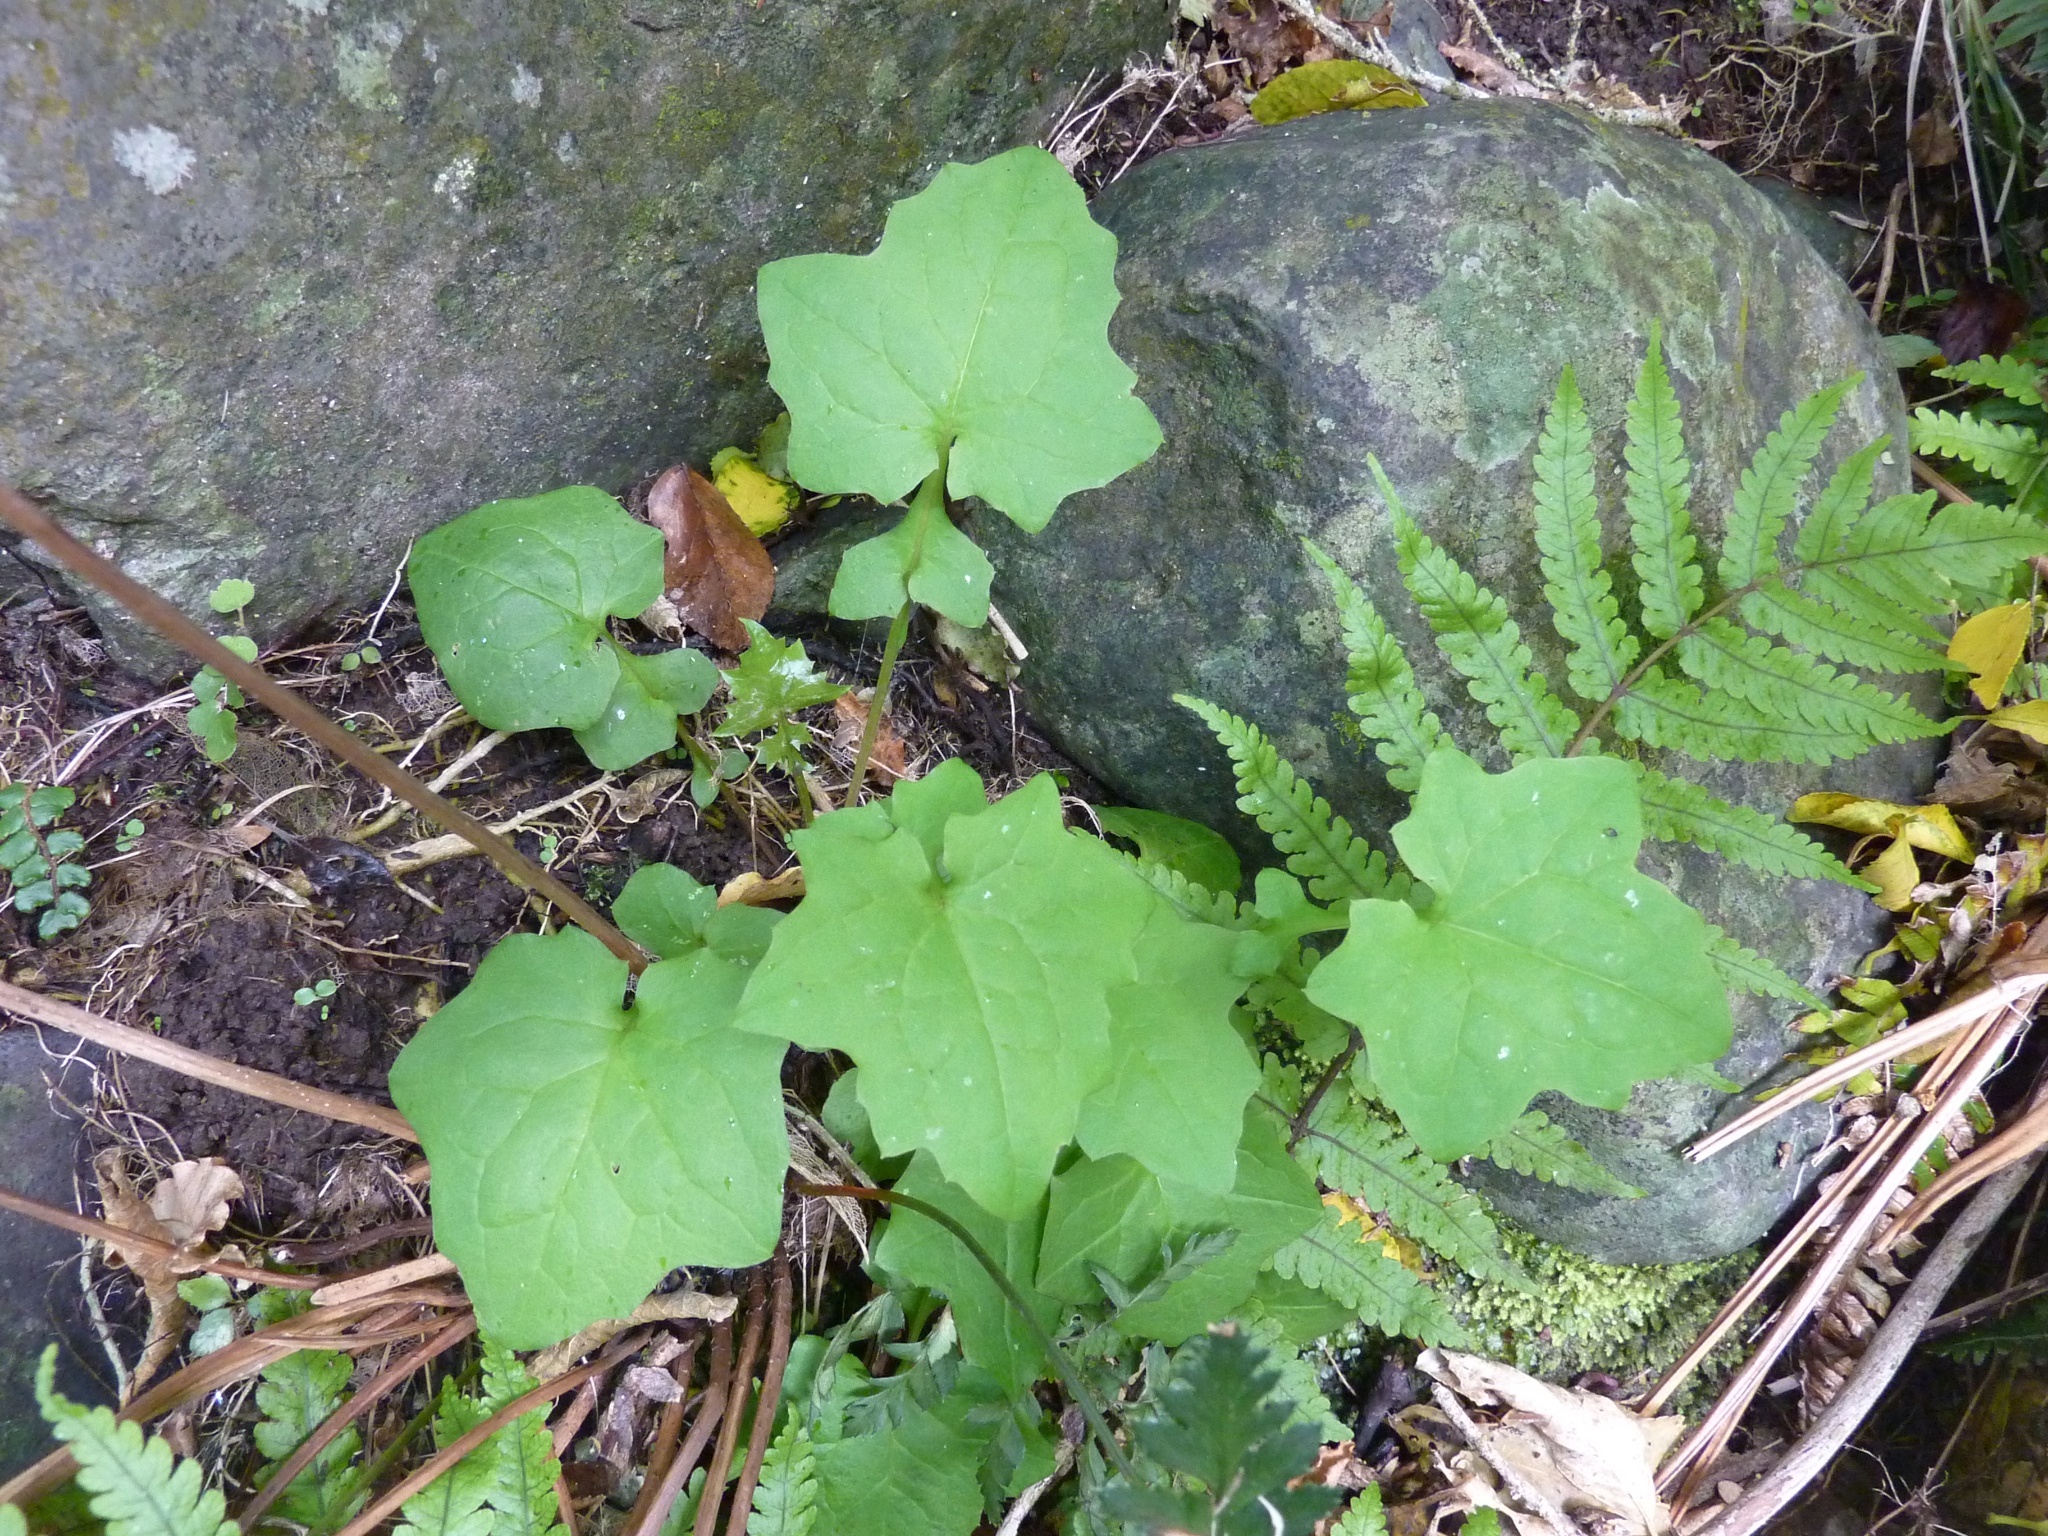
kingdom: Plantae
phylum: Tracheophyta
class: Magnoliopsida
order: Asterales
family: Asteraceae
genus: Mycelis
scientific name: Mycelis muralis
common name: Wall lettuce
